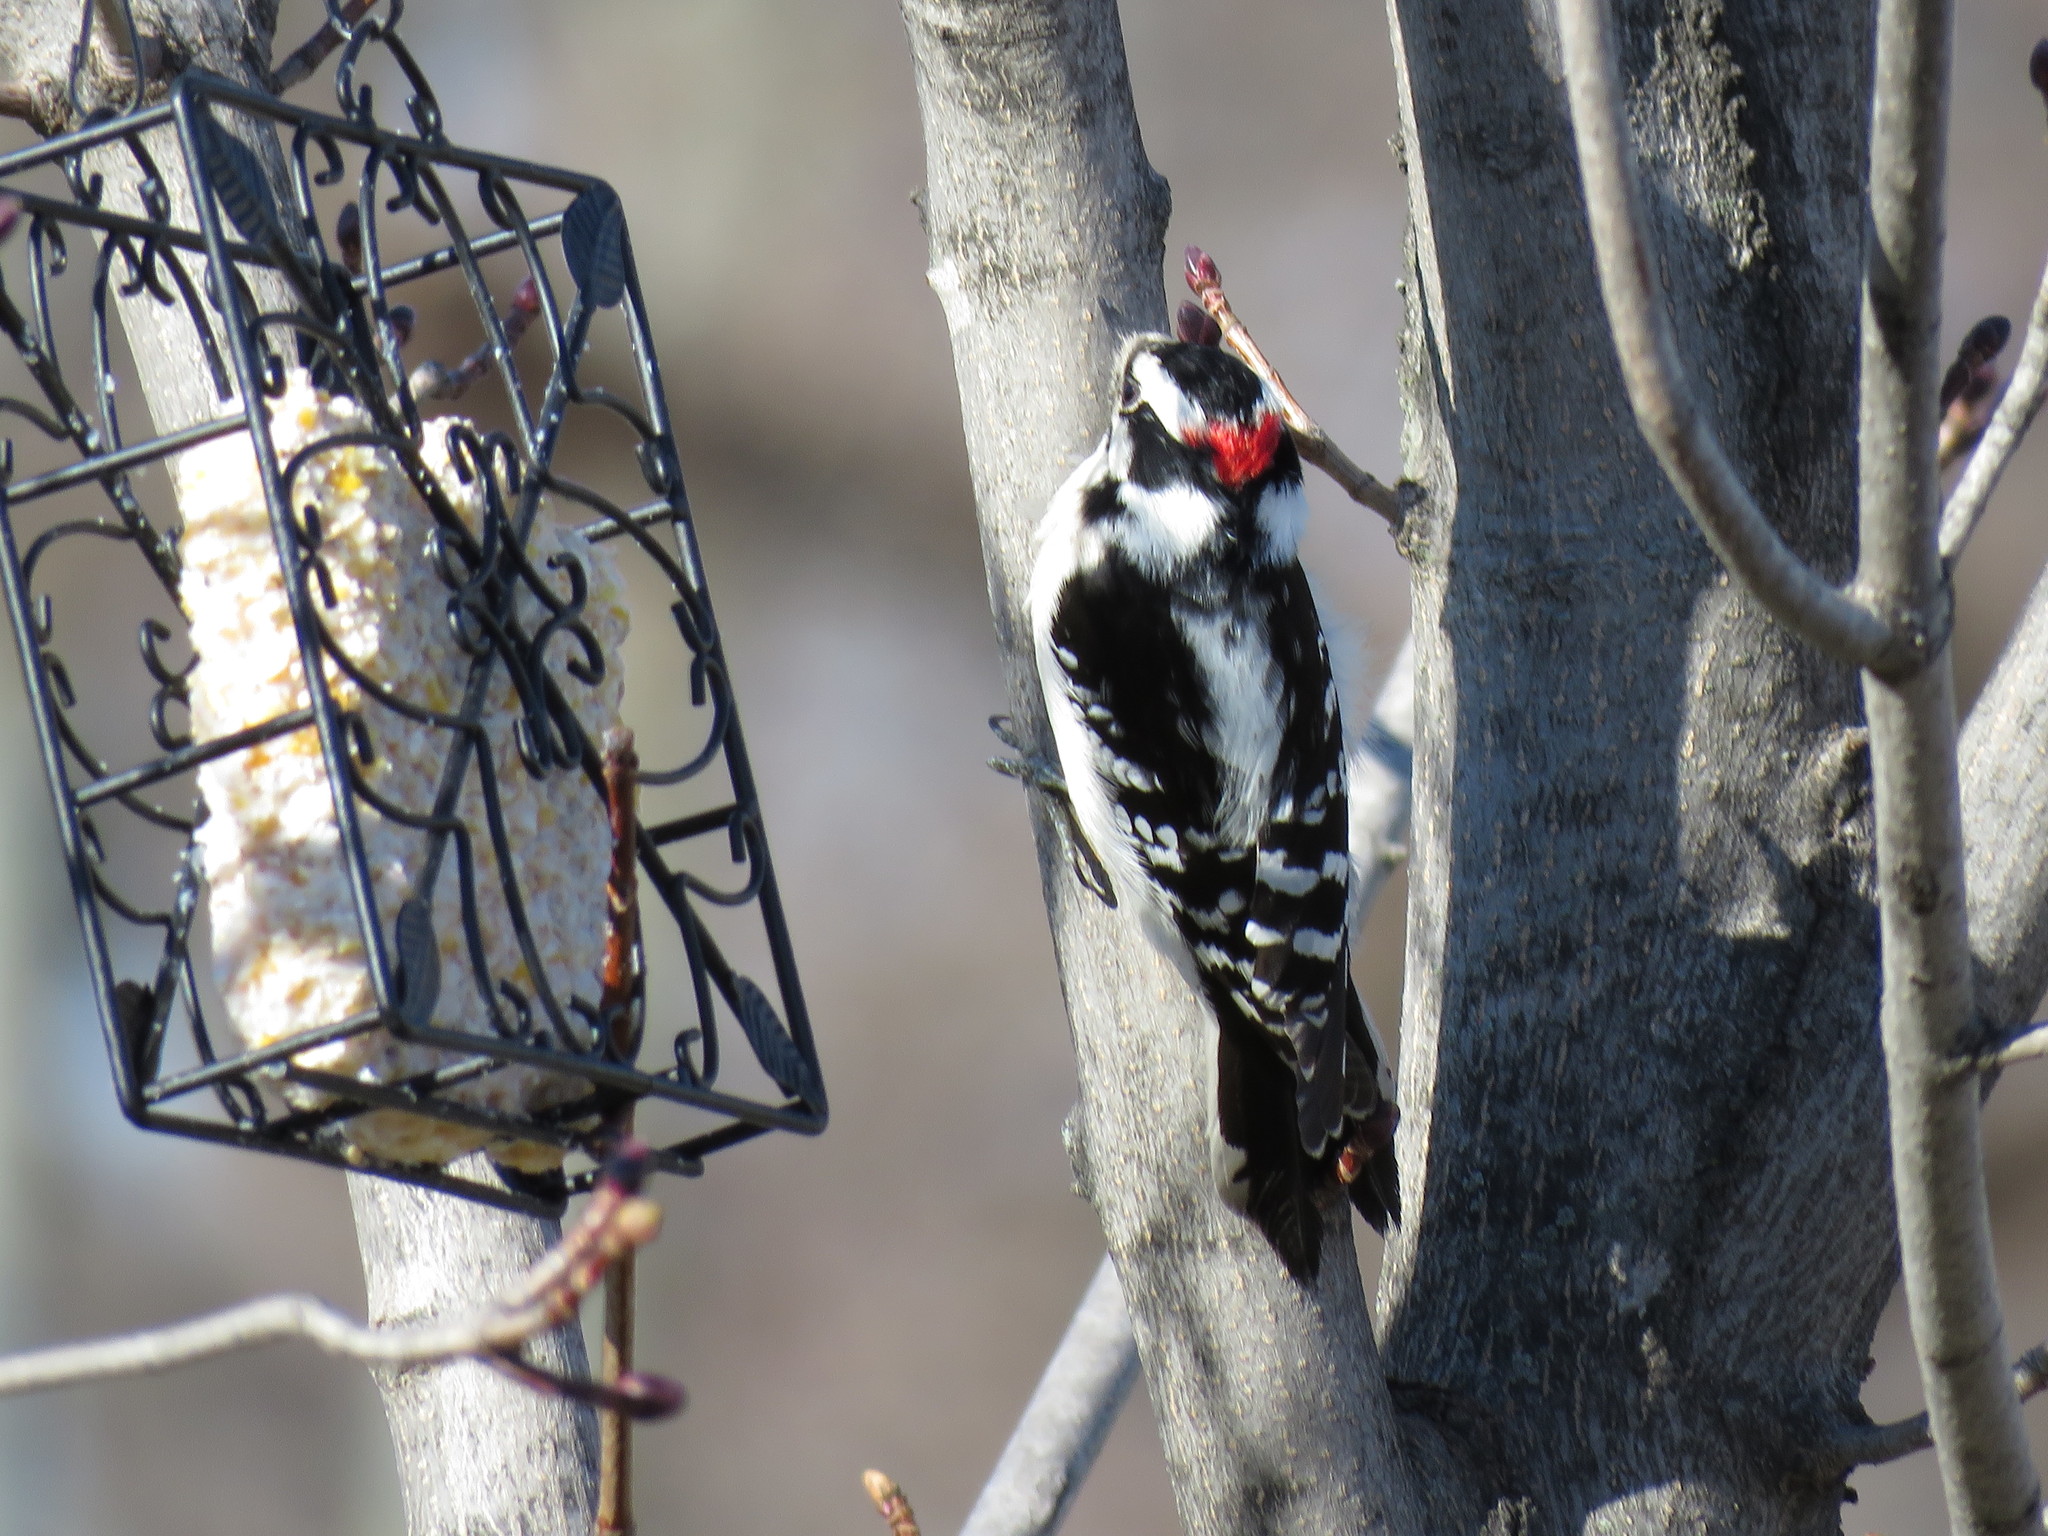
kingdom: Animalia
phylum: Chordata
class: Aves
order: Piciformes
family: Picidae
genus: Dryobates
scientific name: Dryobates pubescens
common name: Downy woodpecker
